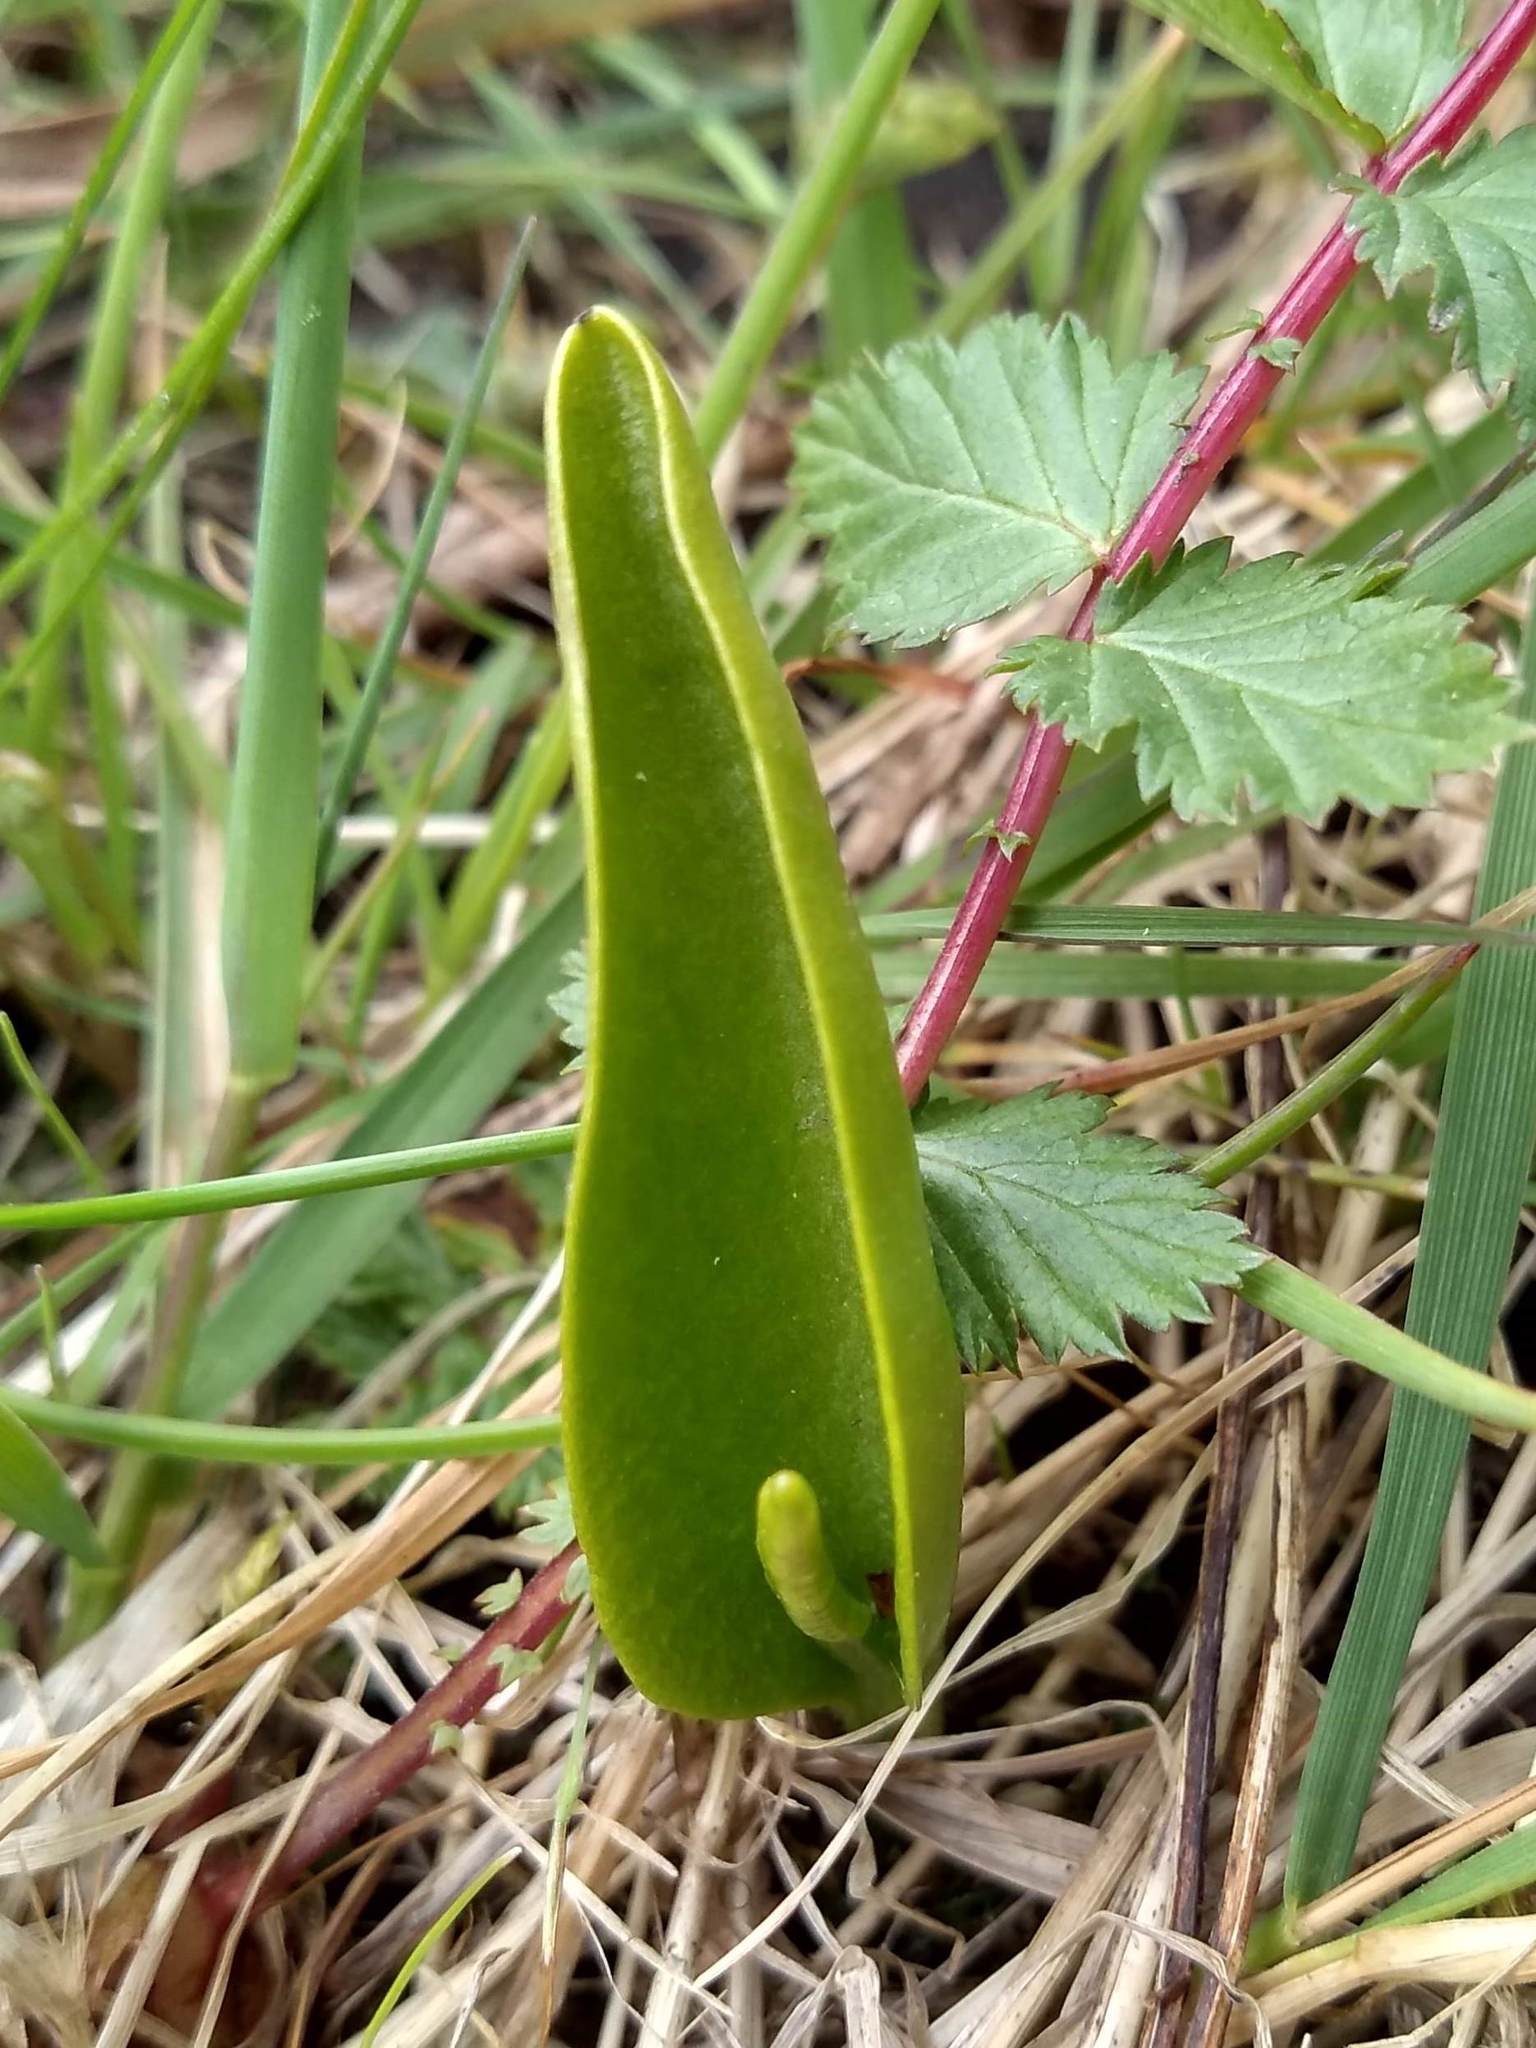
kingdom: Plantae
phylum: Tracheophyta
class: Polypodiopsida
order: Ophioglossales
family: Ophioglossaceae
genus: Ophioglossum
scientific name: Ophioglossum vulgatum
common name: Adder's-tongue
